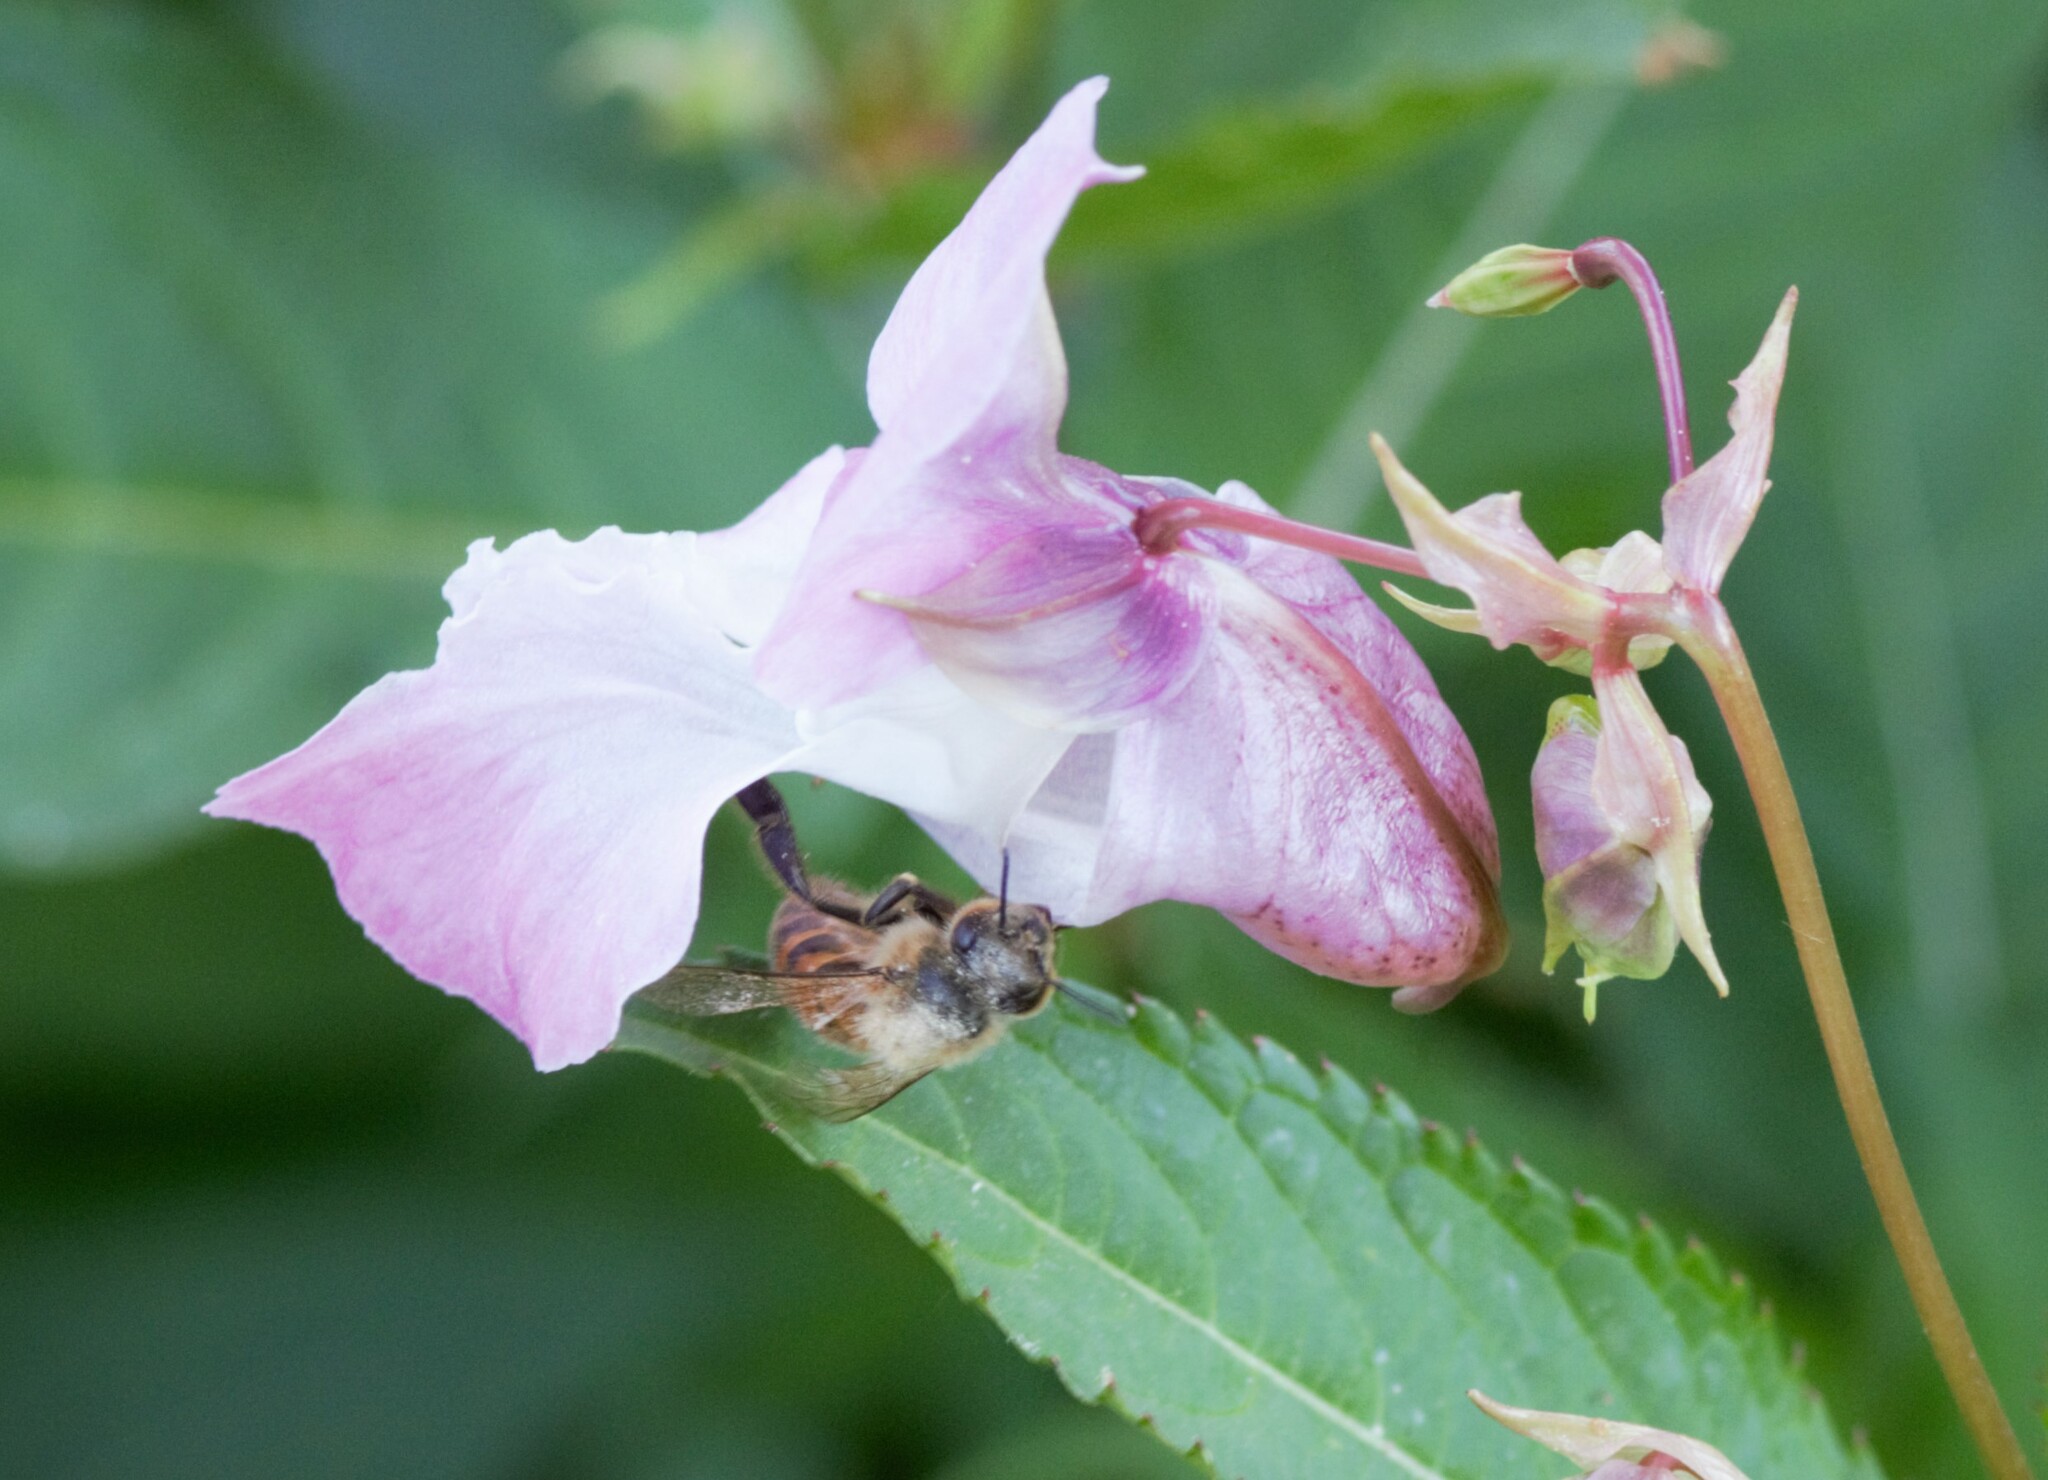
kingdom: Animalia
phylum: Arthropoda
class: Insecta
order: Hymenoptera
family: Apidae
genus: Apis
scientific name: Apis mellifera
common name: Honey bee
